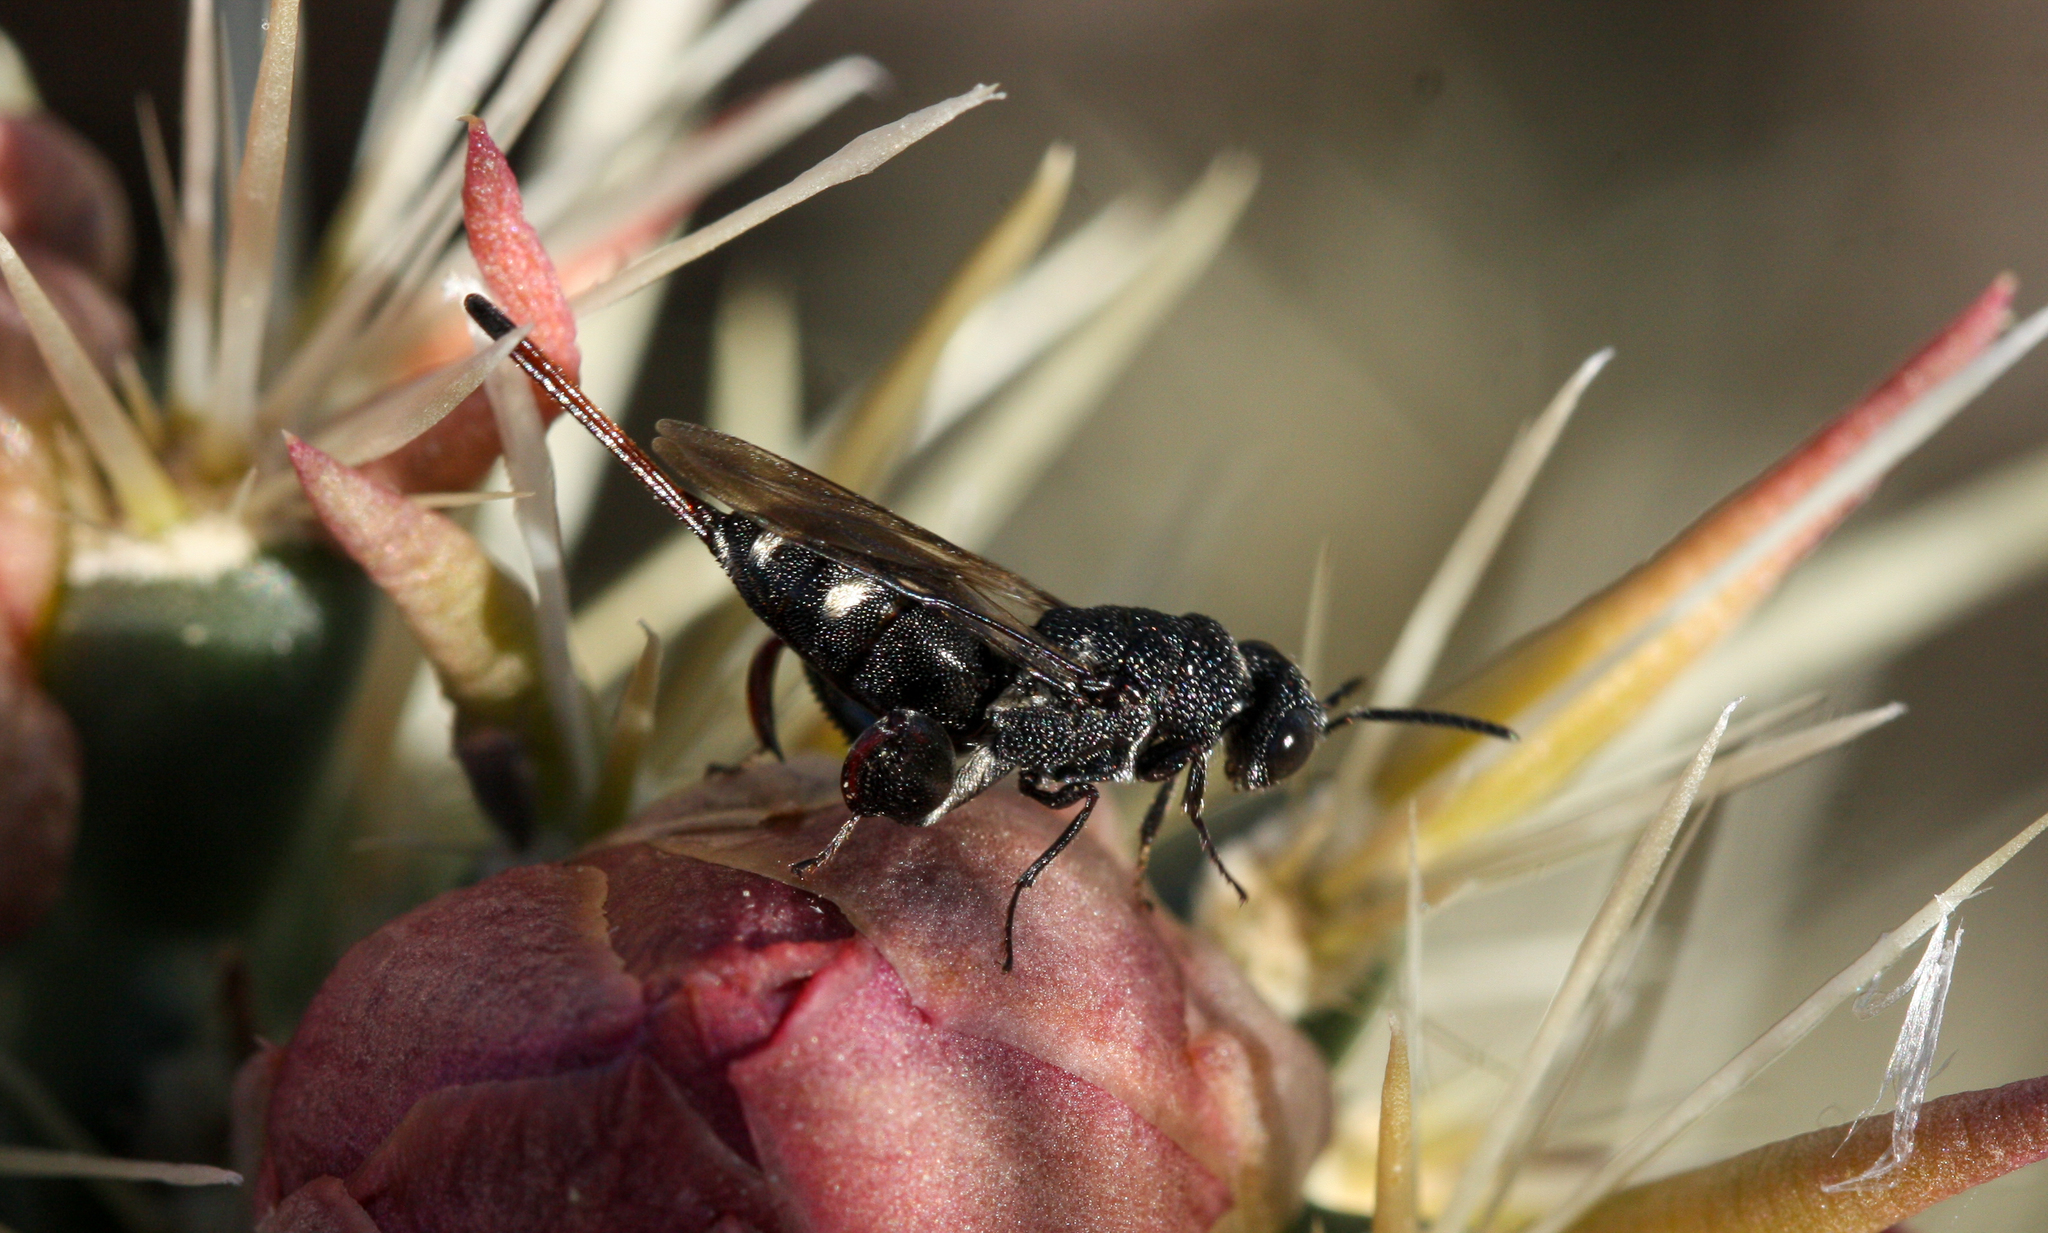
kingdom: Animalia
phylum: Arthropoda
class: Insecta
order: Hymenoptera
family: Chalcididae
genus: Acanthochalcis
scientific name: Acanthochalcis nigricans
